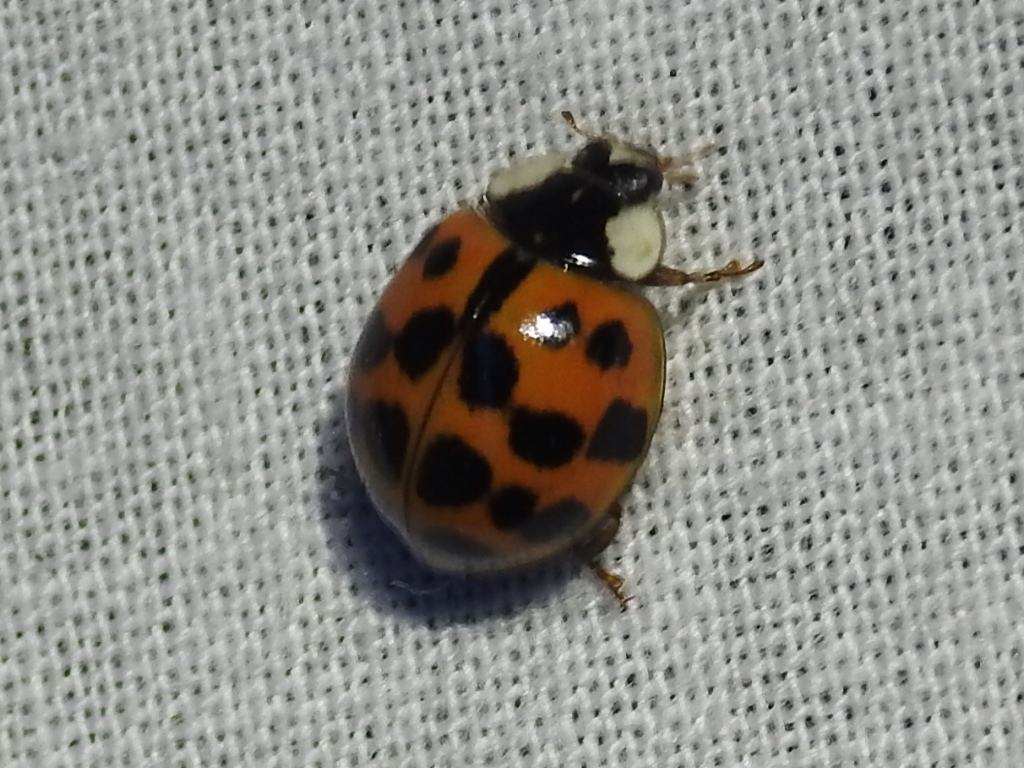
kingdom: Animalia
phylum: Arthropoda
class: Insecta
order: Coleoptera
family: Coccinellidae
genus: Harmonia
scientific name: Harmonia axyridis
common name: Harlequin ladybird
